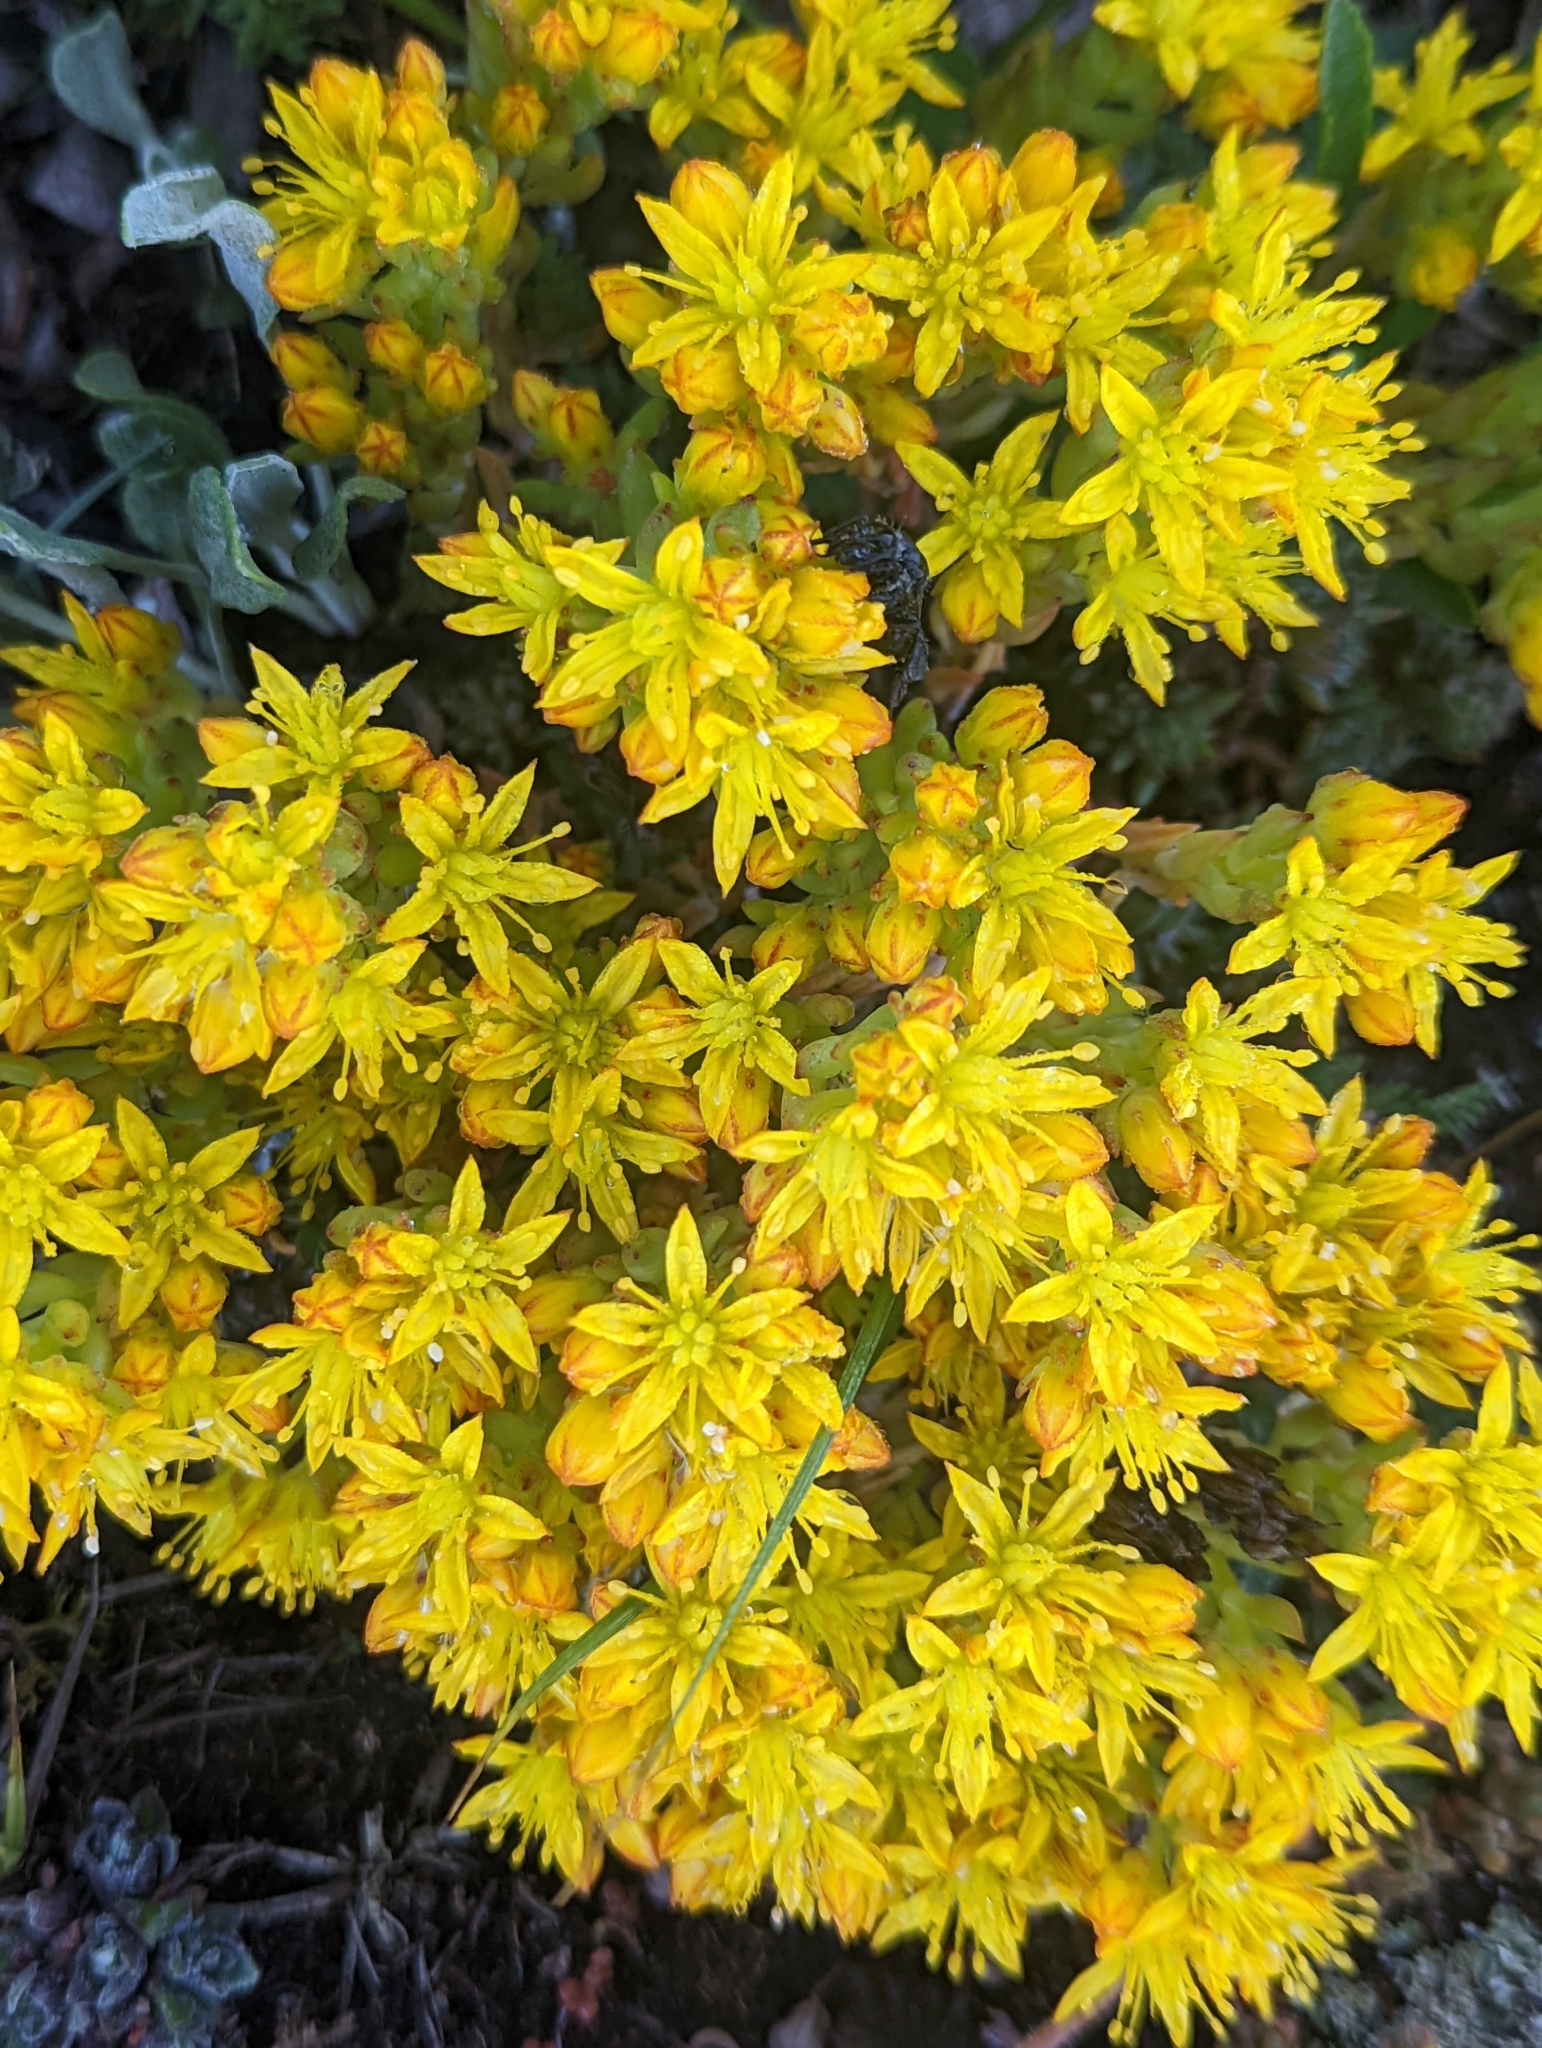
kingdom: Plantae
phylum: Tracheophyta
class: Magnoliopsida
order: Saxifragales
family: Crassulaceae
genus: Sedum
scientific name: Sedum lanceolatum
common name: Common stonecrop
